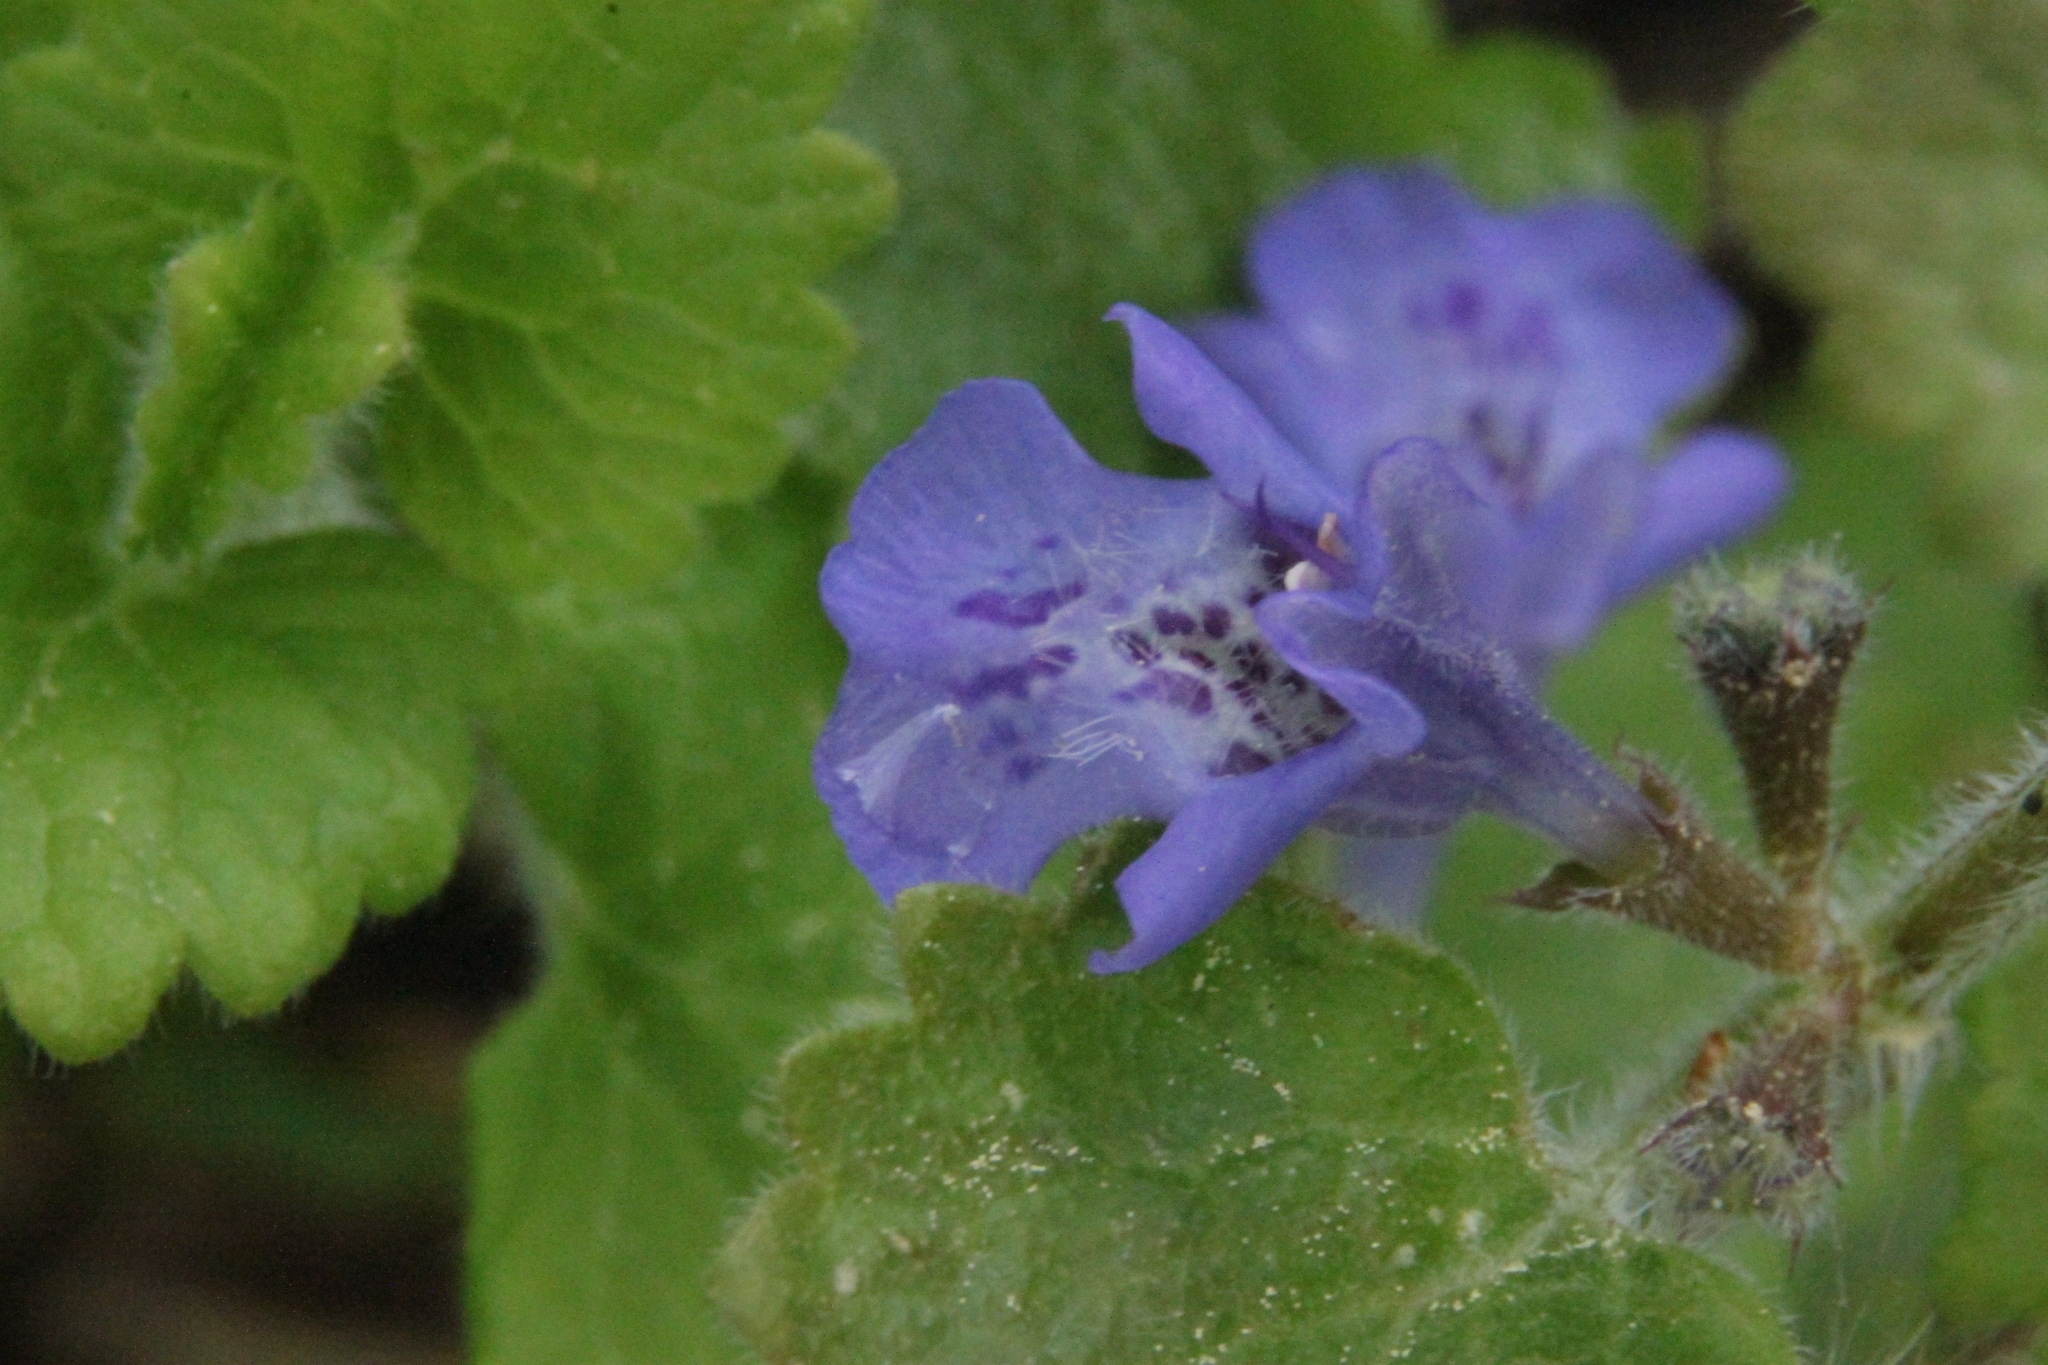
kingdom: Plantae
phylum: Tracheophyta
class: Magnoliopsida
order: Lamiales
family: Lamiaceae
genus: Glechoma
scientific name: Glechoma hederacea
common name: Ground ivy
